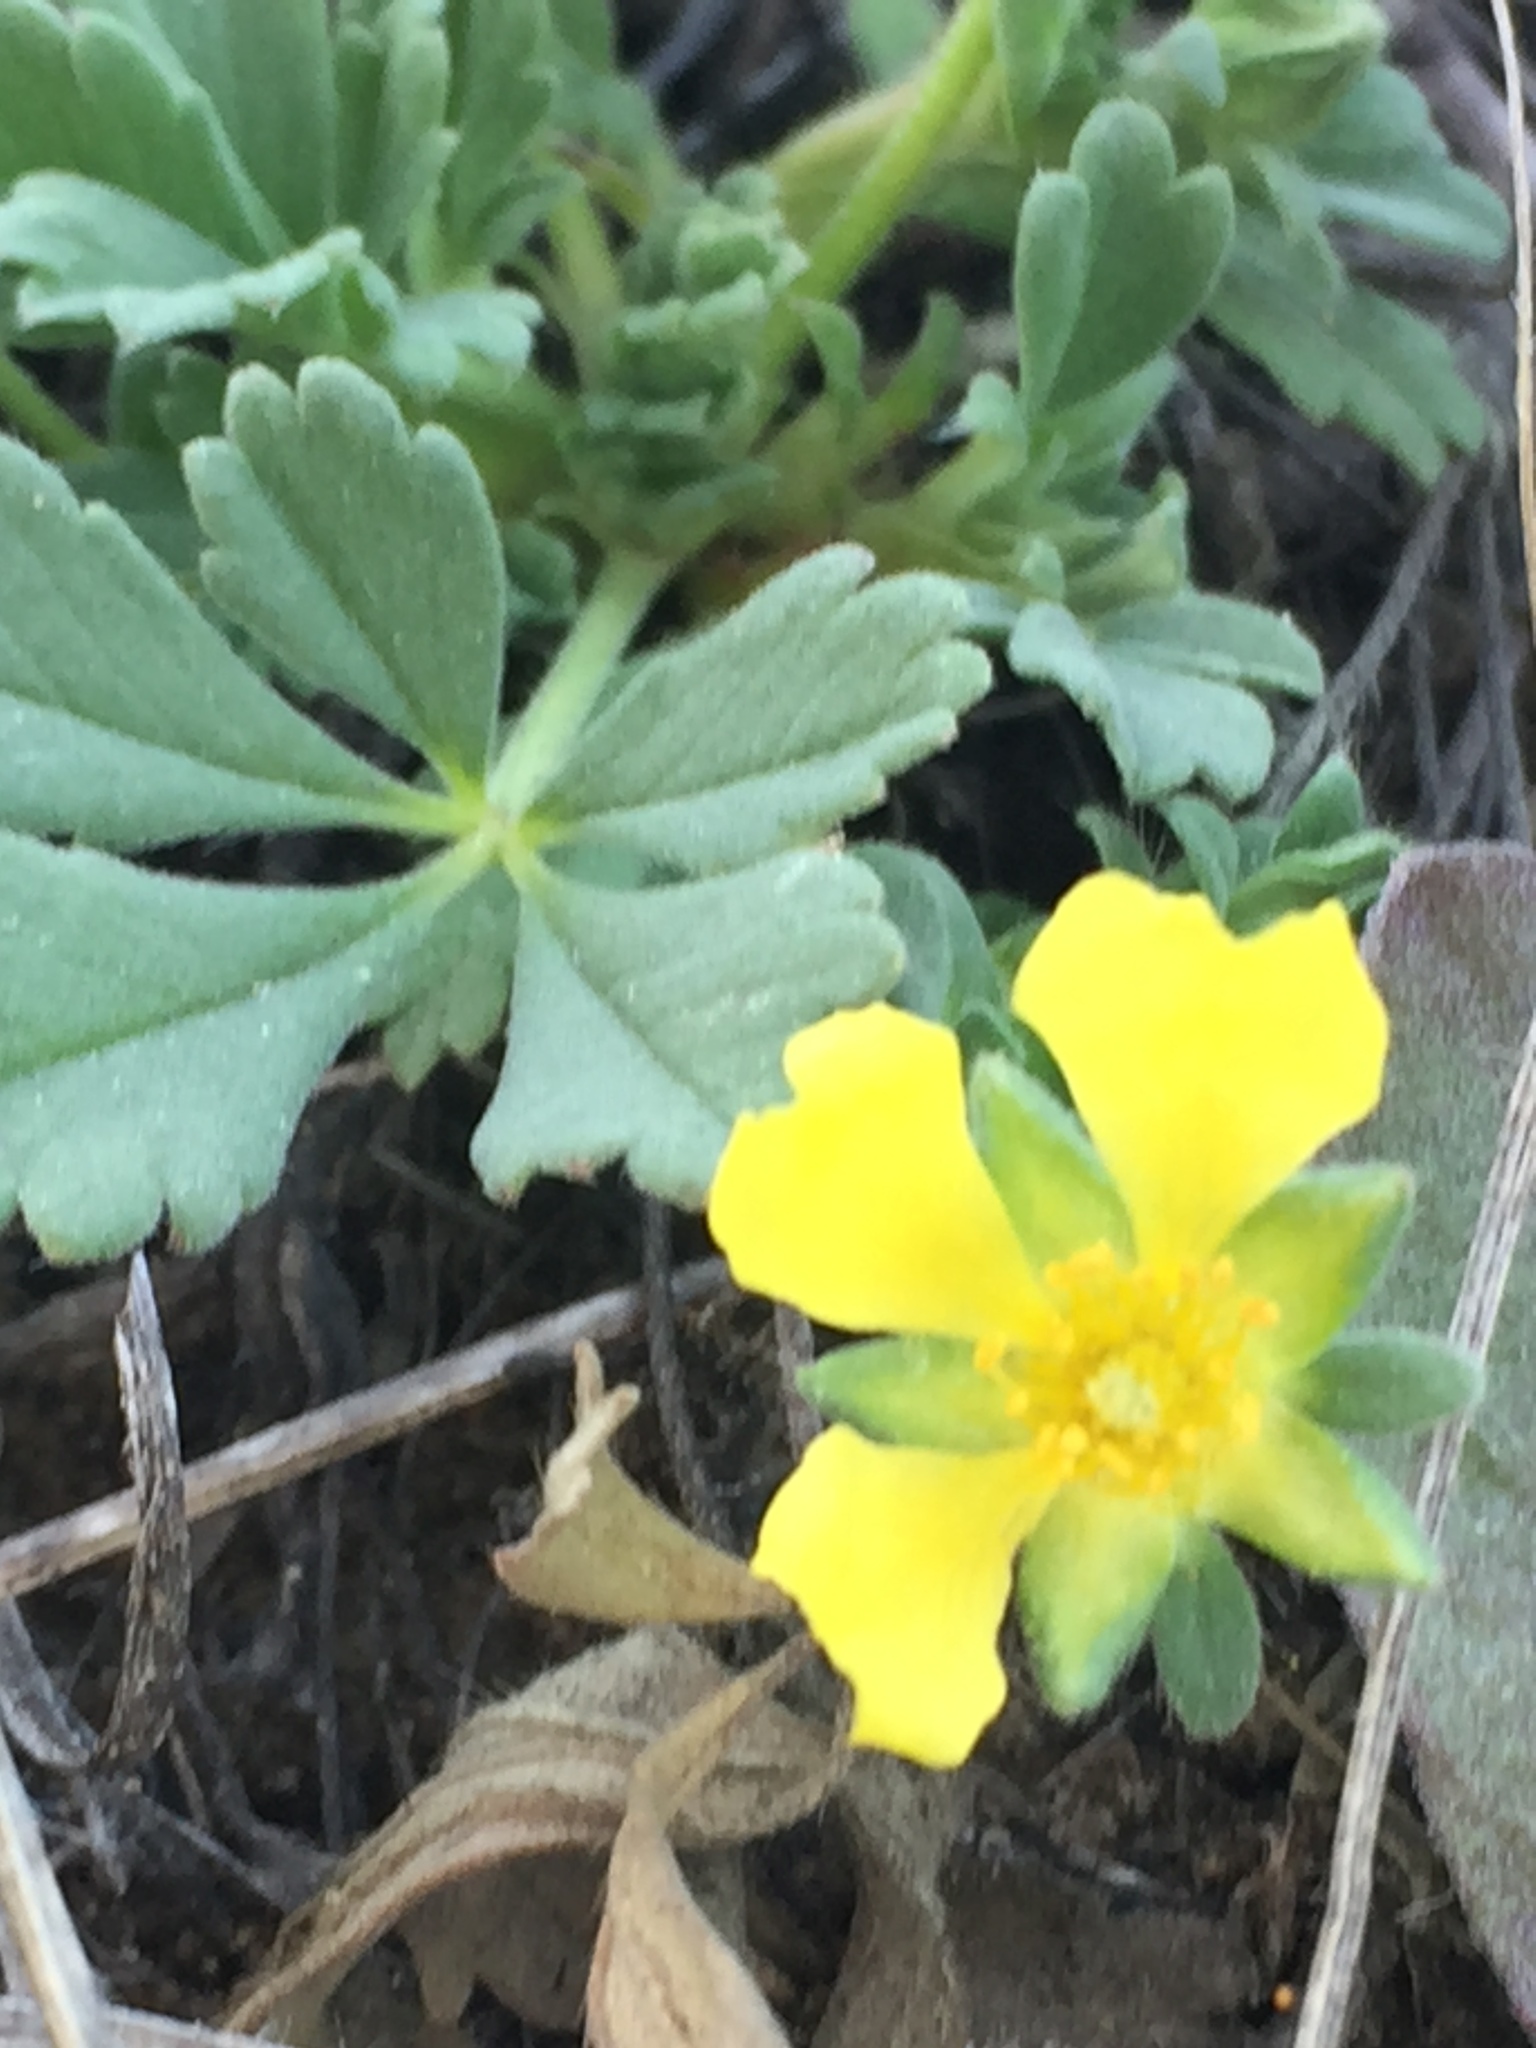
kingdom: Plantae
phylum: Tracheophyta
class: Magnoliopsida
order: Rosales
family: Rosaceae
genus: Potentilla
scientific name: Potentilla incana
